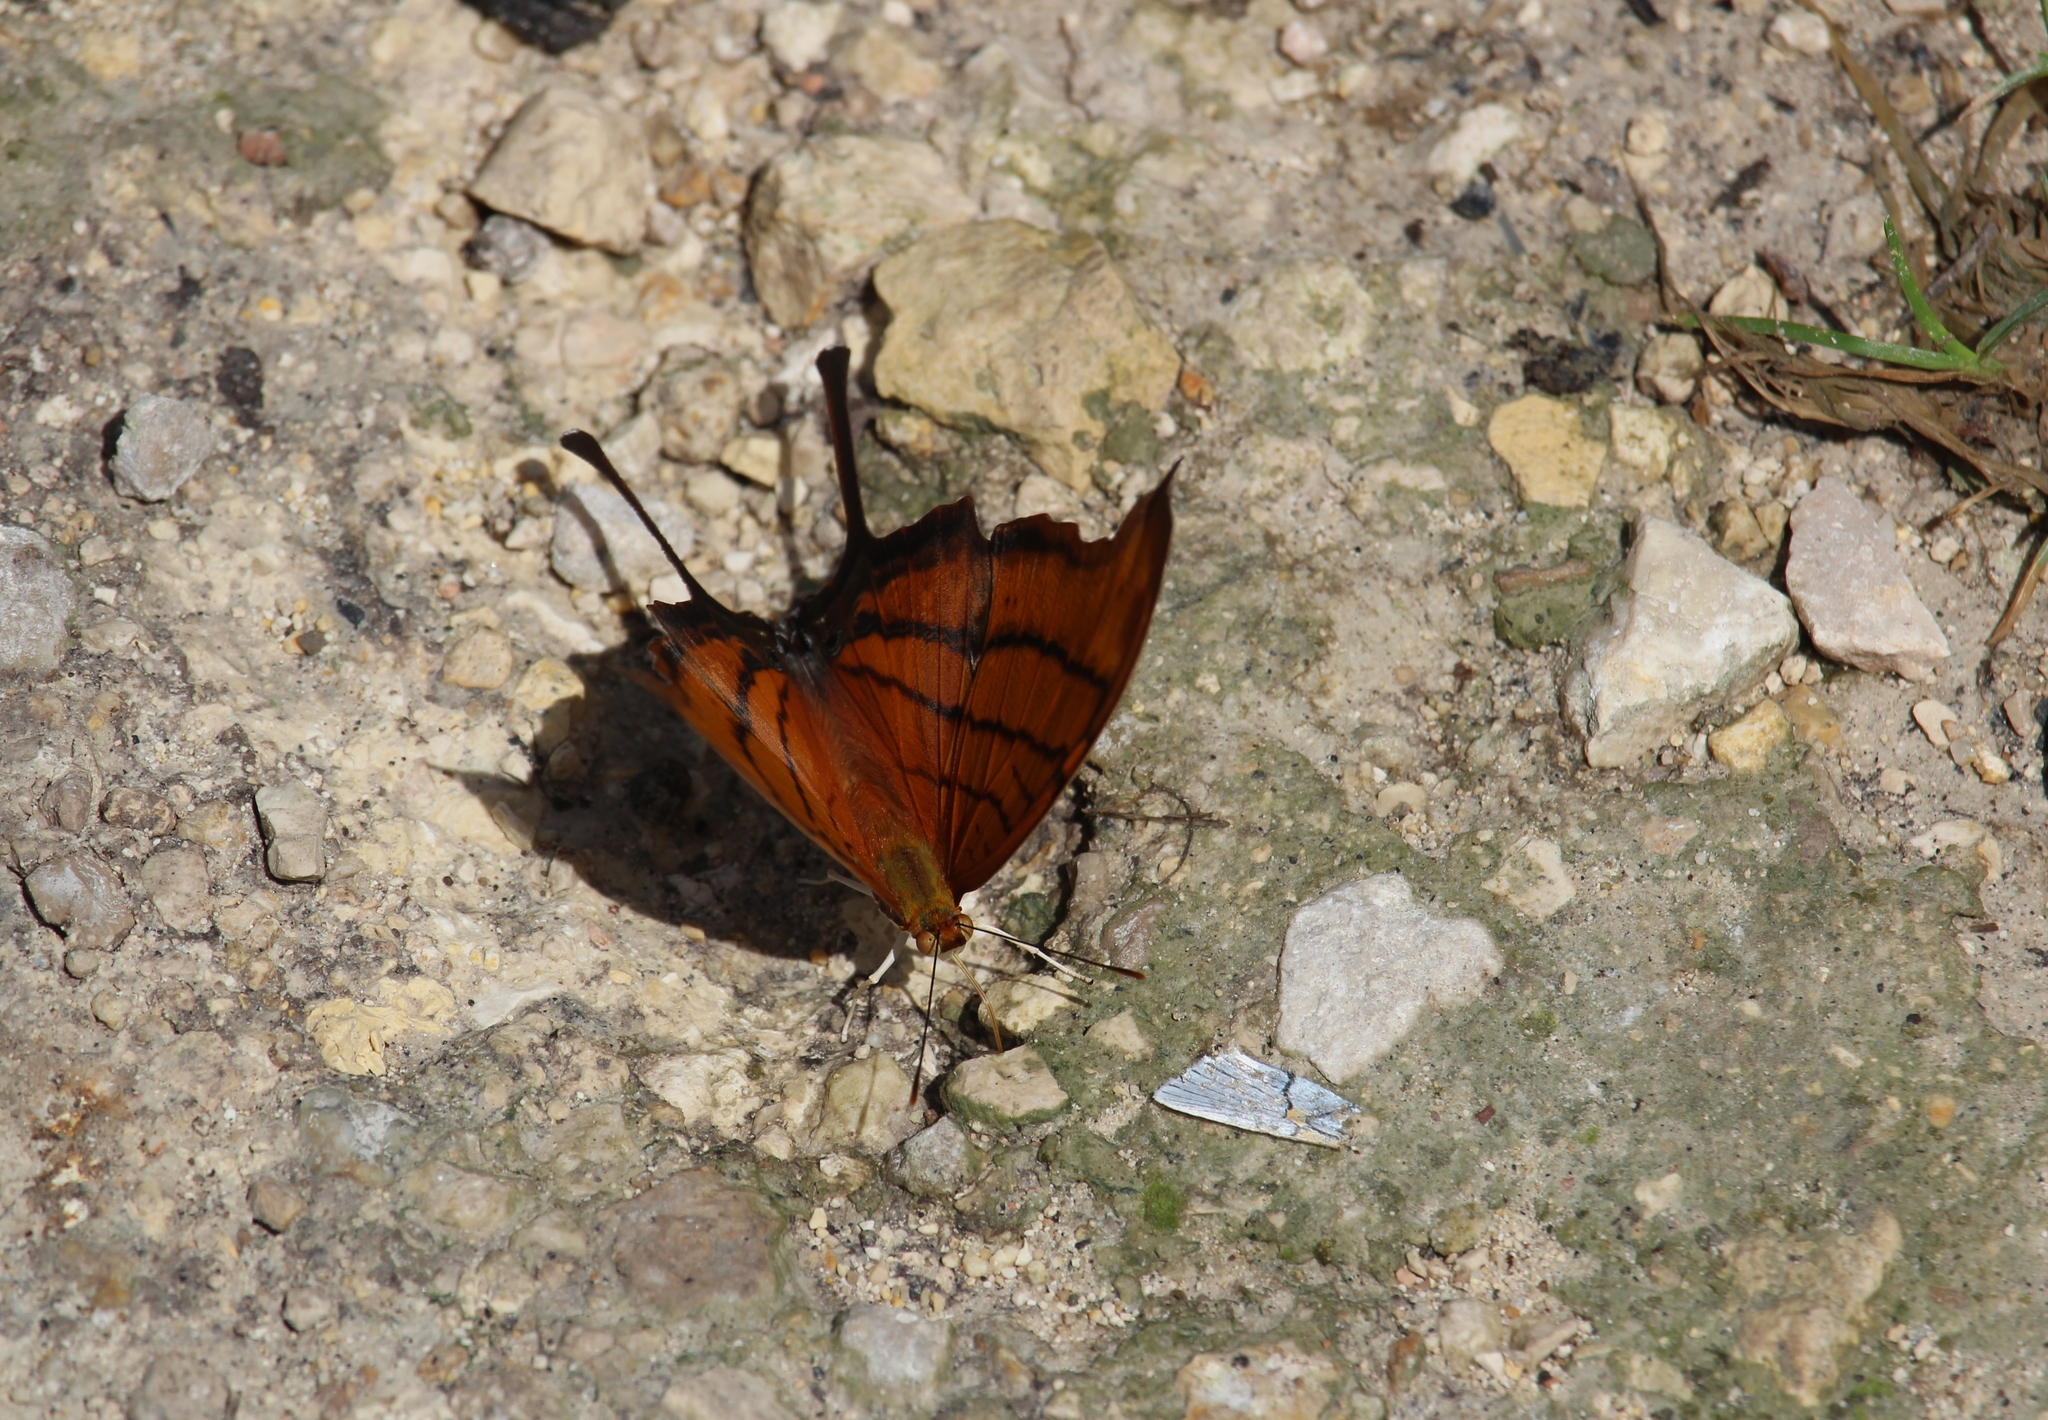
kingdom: Animalia
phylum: Arthropoda
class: Insecta
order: Lepidoptera
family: Nymphalidae
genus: Marpesia
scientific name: Marpesia petreus
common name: Red dagger wing
